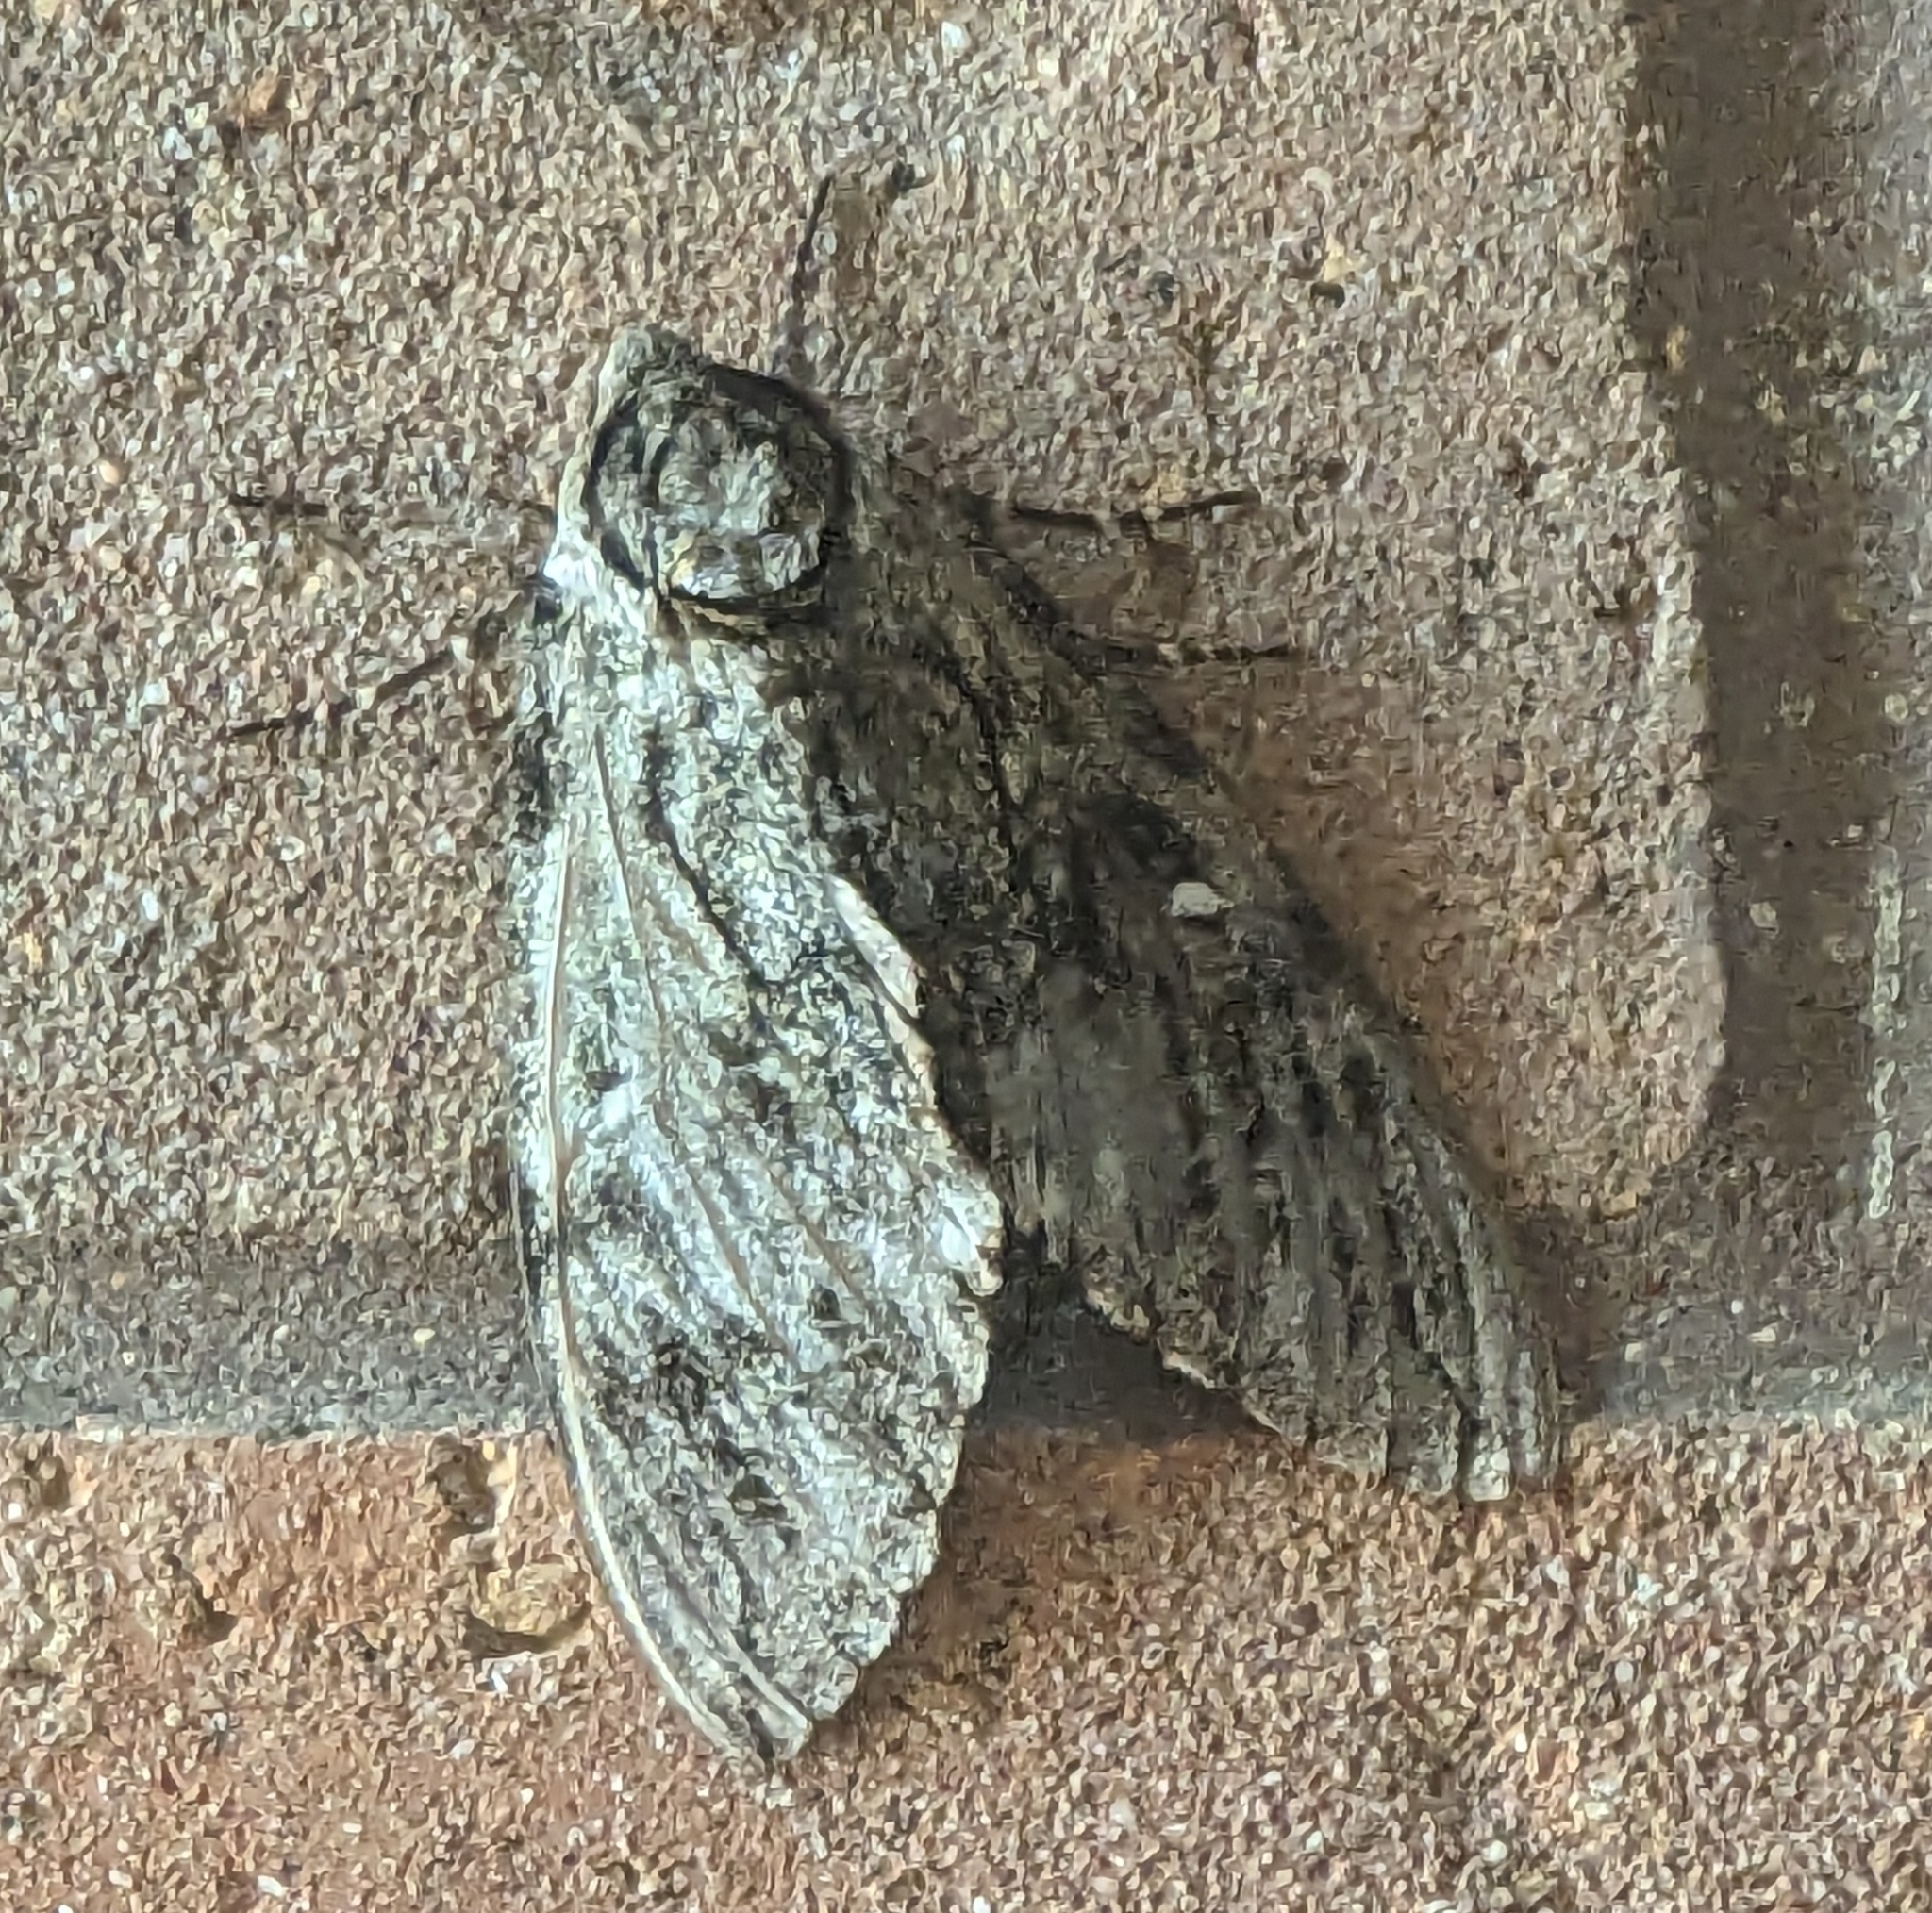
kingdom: Animalia
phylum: Arthropoda
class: Insecta
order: Lepidoptera
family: Sphingidae
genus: Ceratomia
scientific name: Ceratomia undulosa
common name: Waved sphinx
